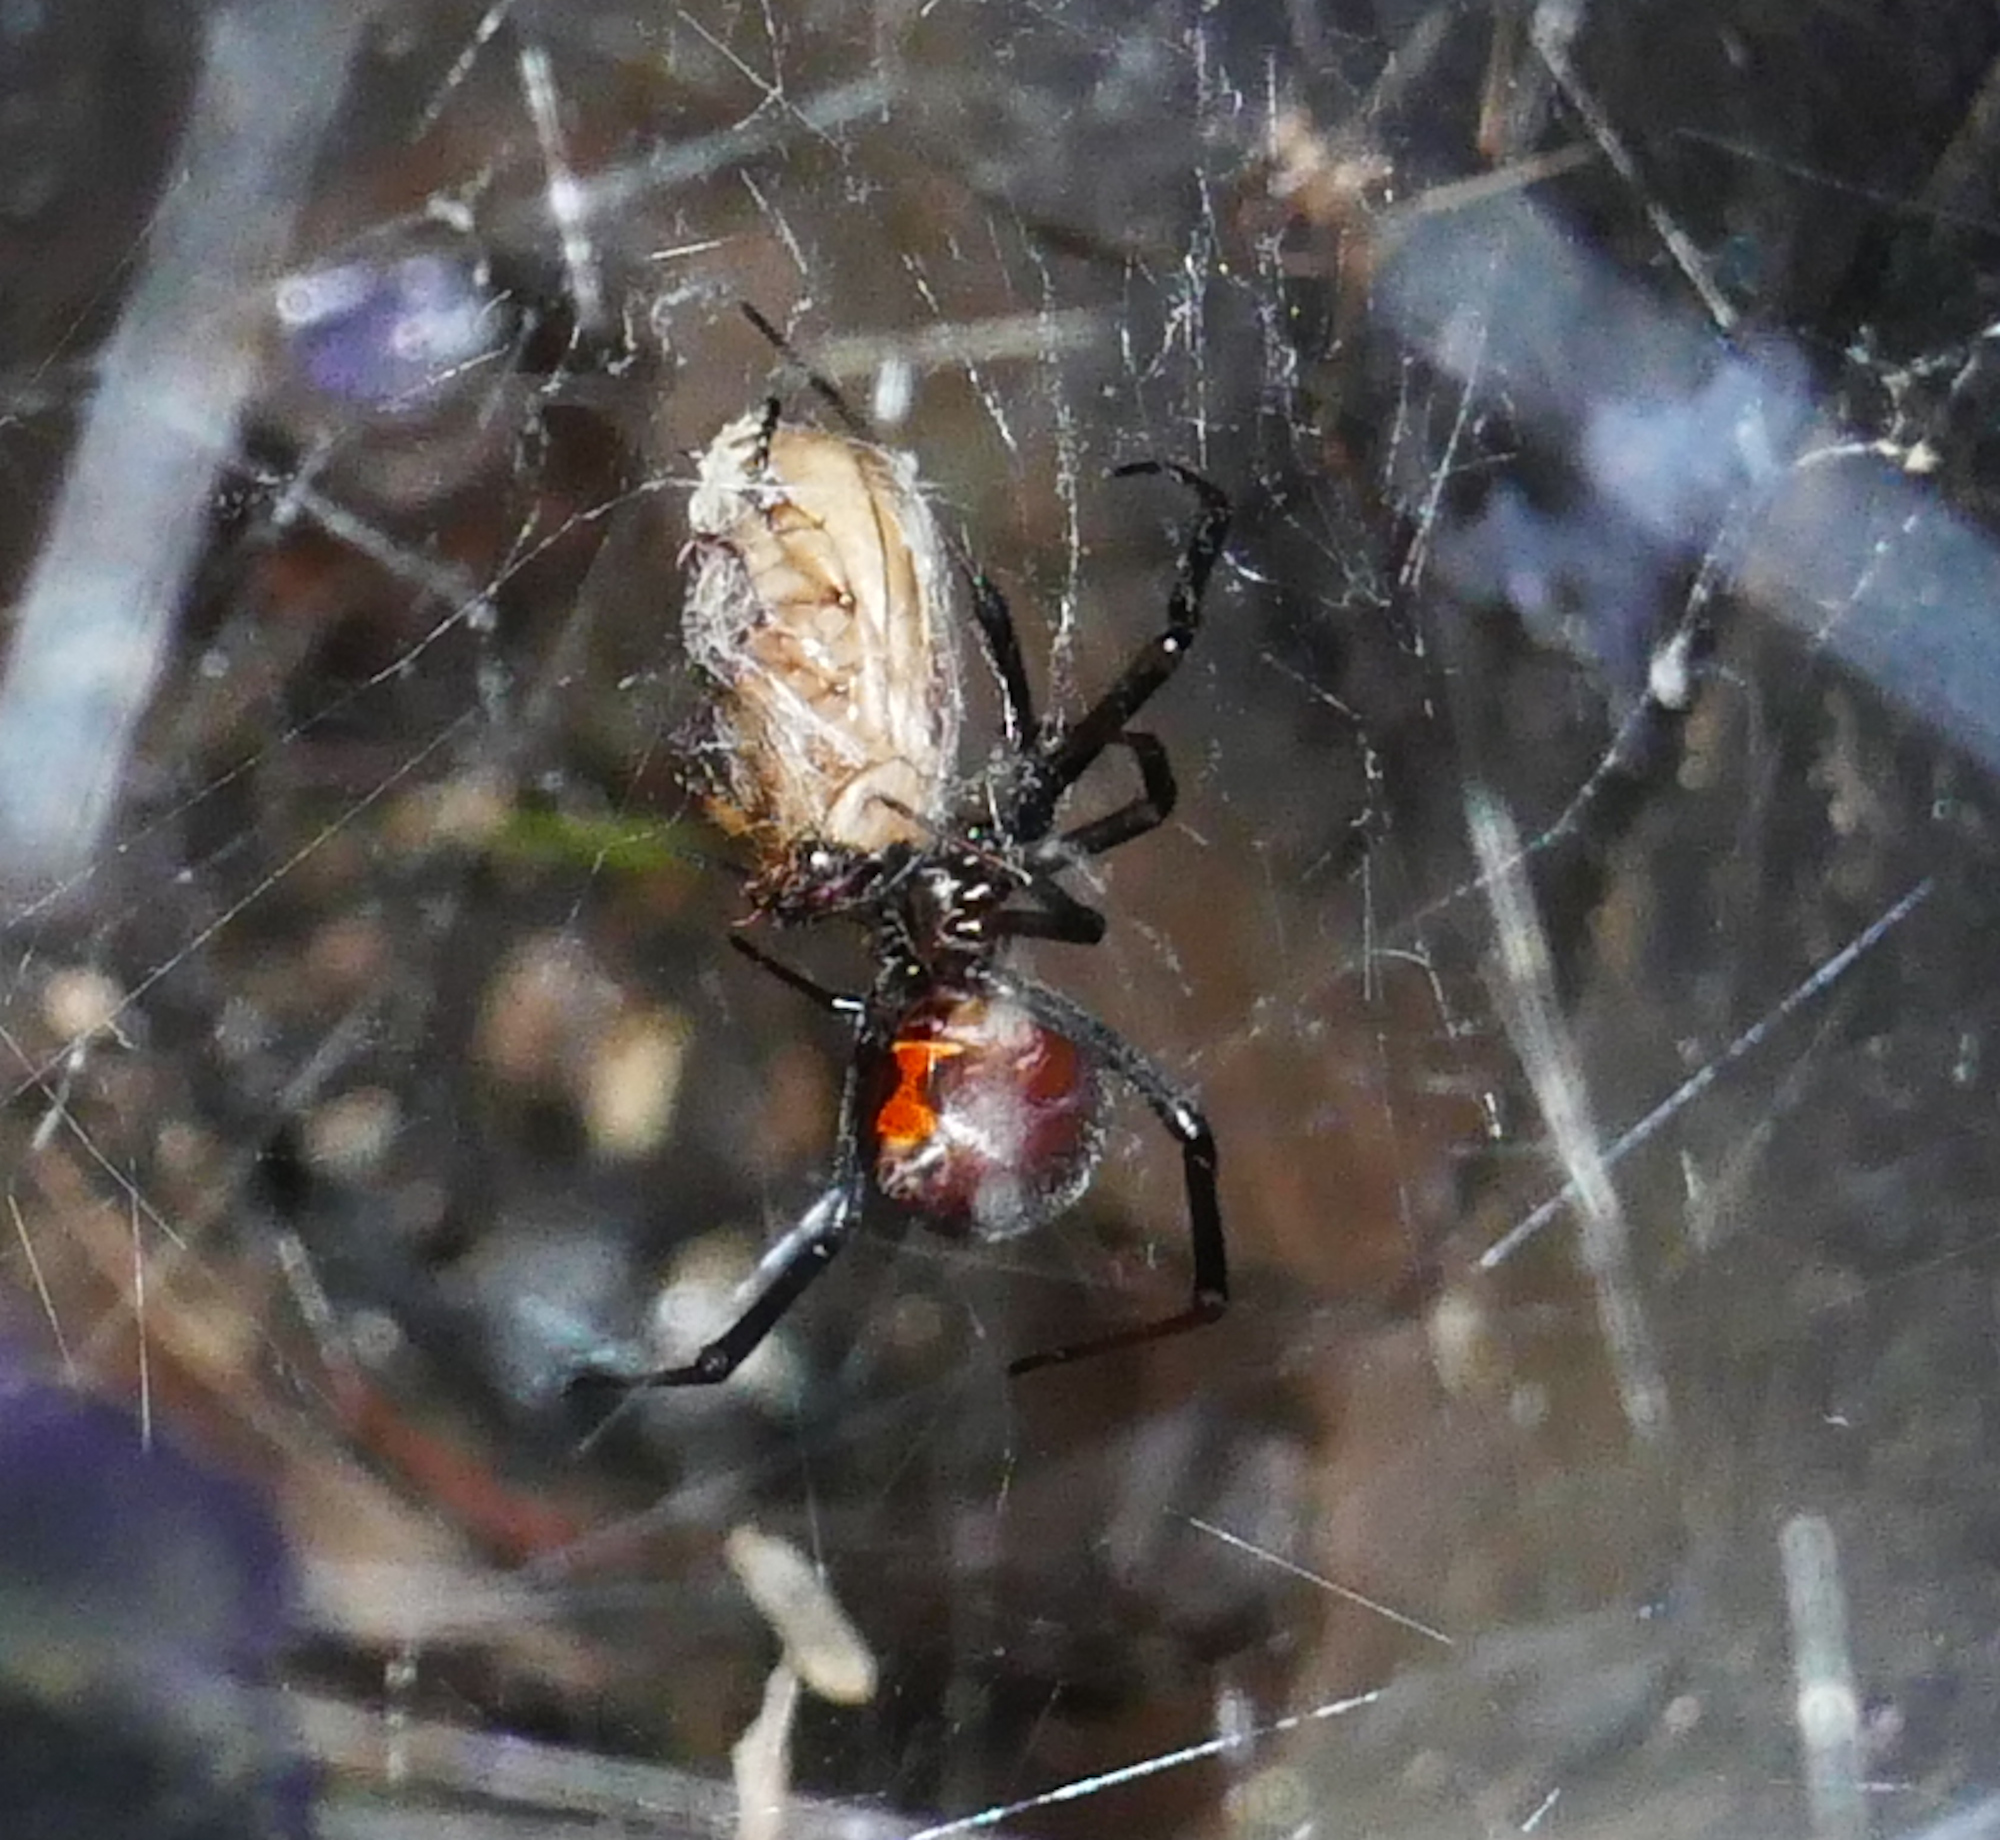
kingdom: Animalia
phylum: Arthropoda
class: Arachnida
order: Araneae
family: Theridiidae
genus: Latrodectus
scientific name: Latrodectus hesperus
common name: Western black widow
